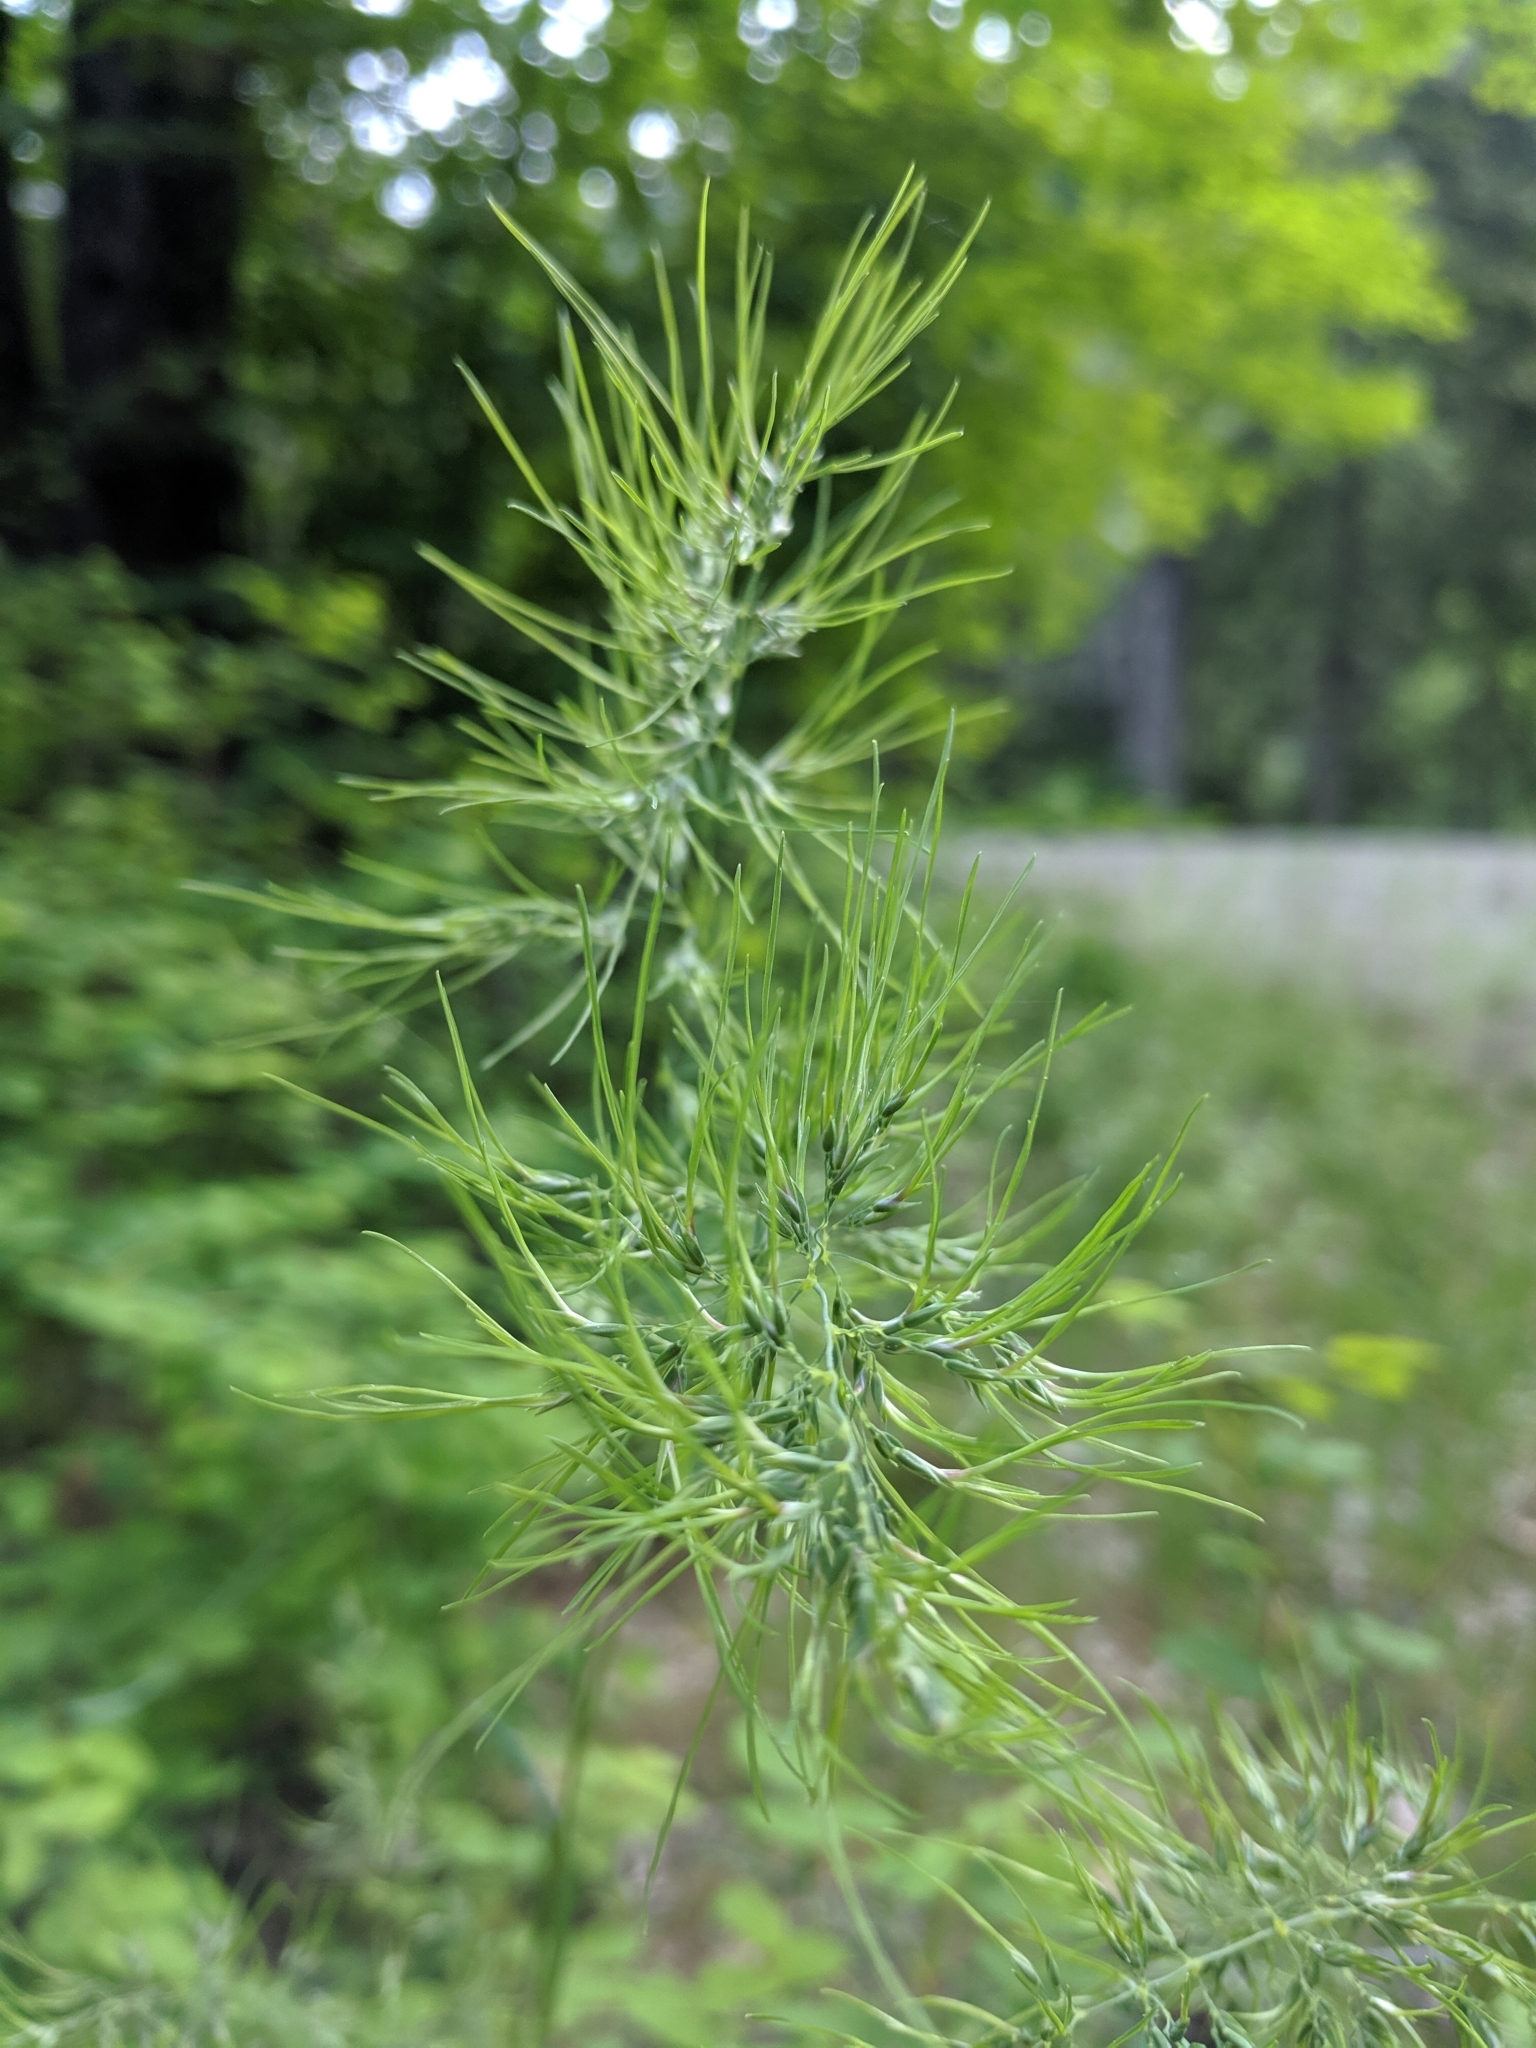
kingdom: Plantae
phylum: Tracheophyta
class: Liliopsida
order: Poales
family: Poaceae
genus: Poa
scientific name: Poa bulbosa
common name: Bulbous bluegrass
